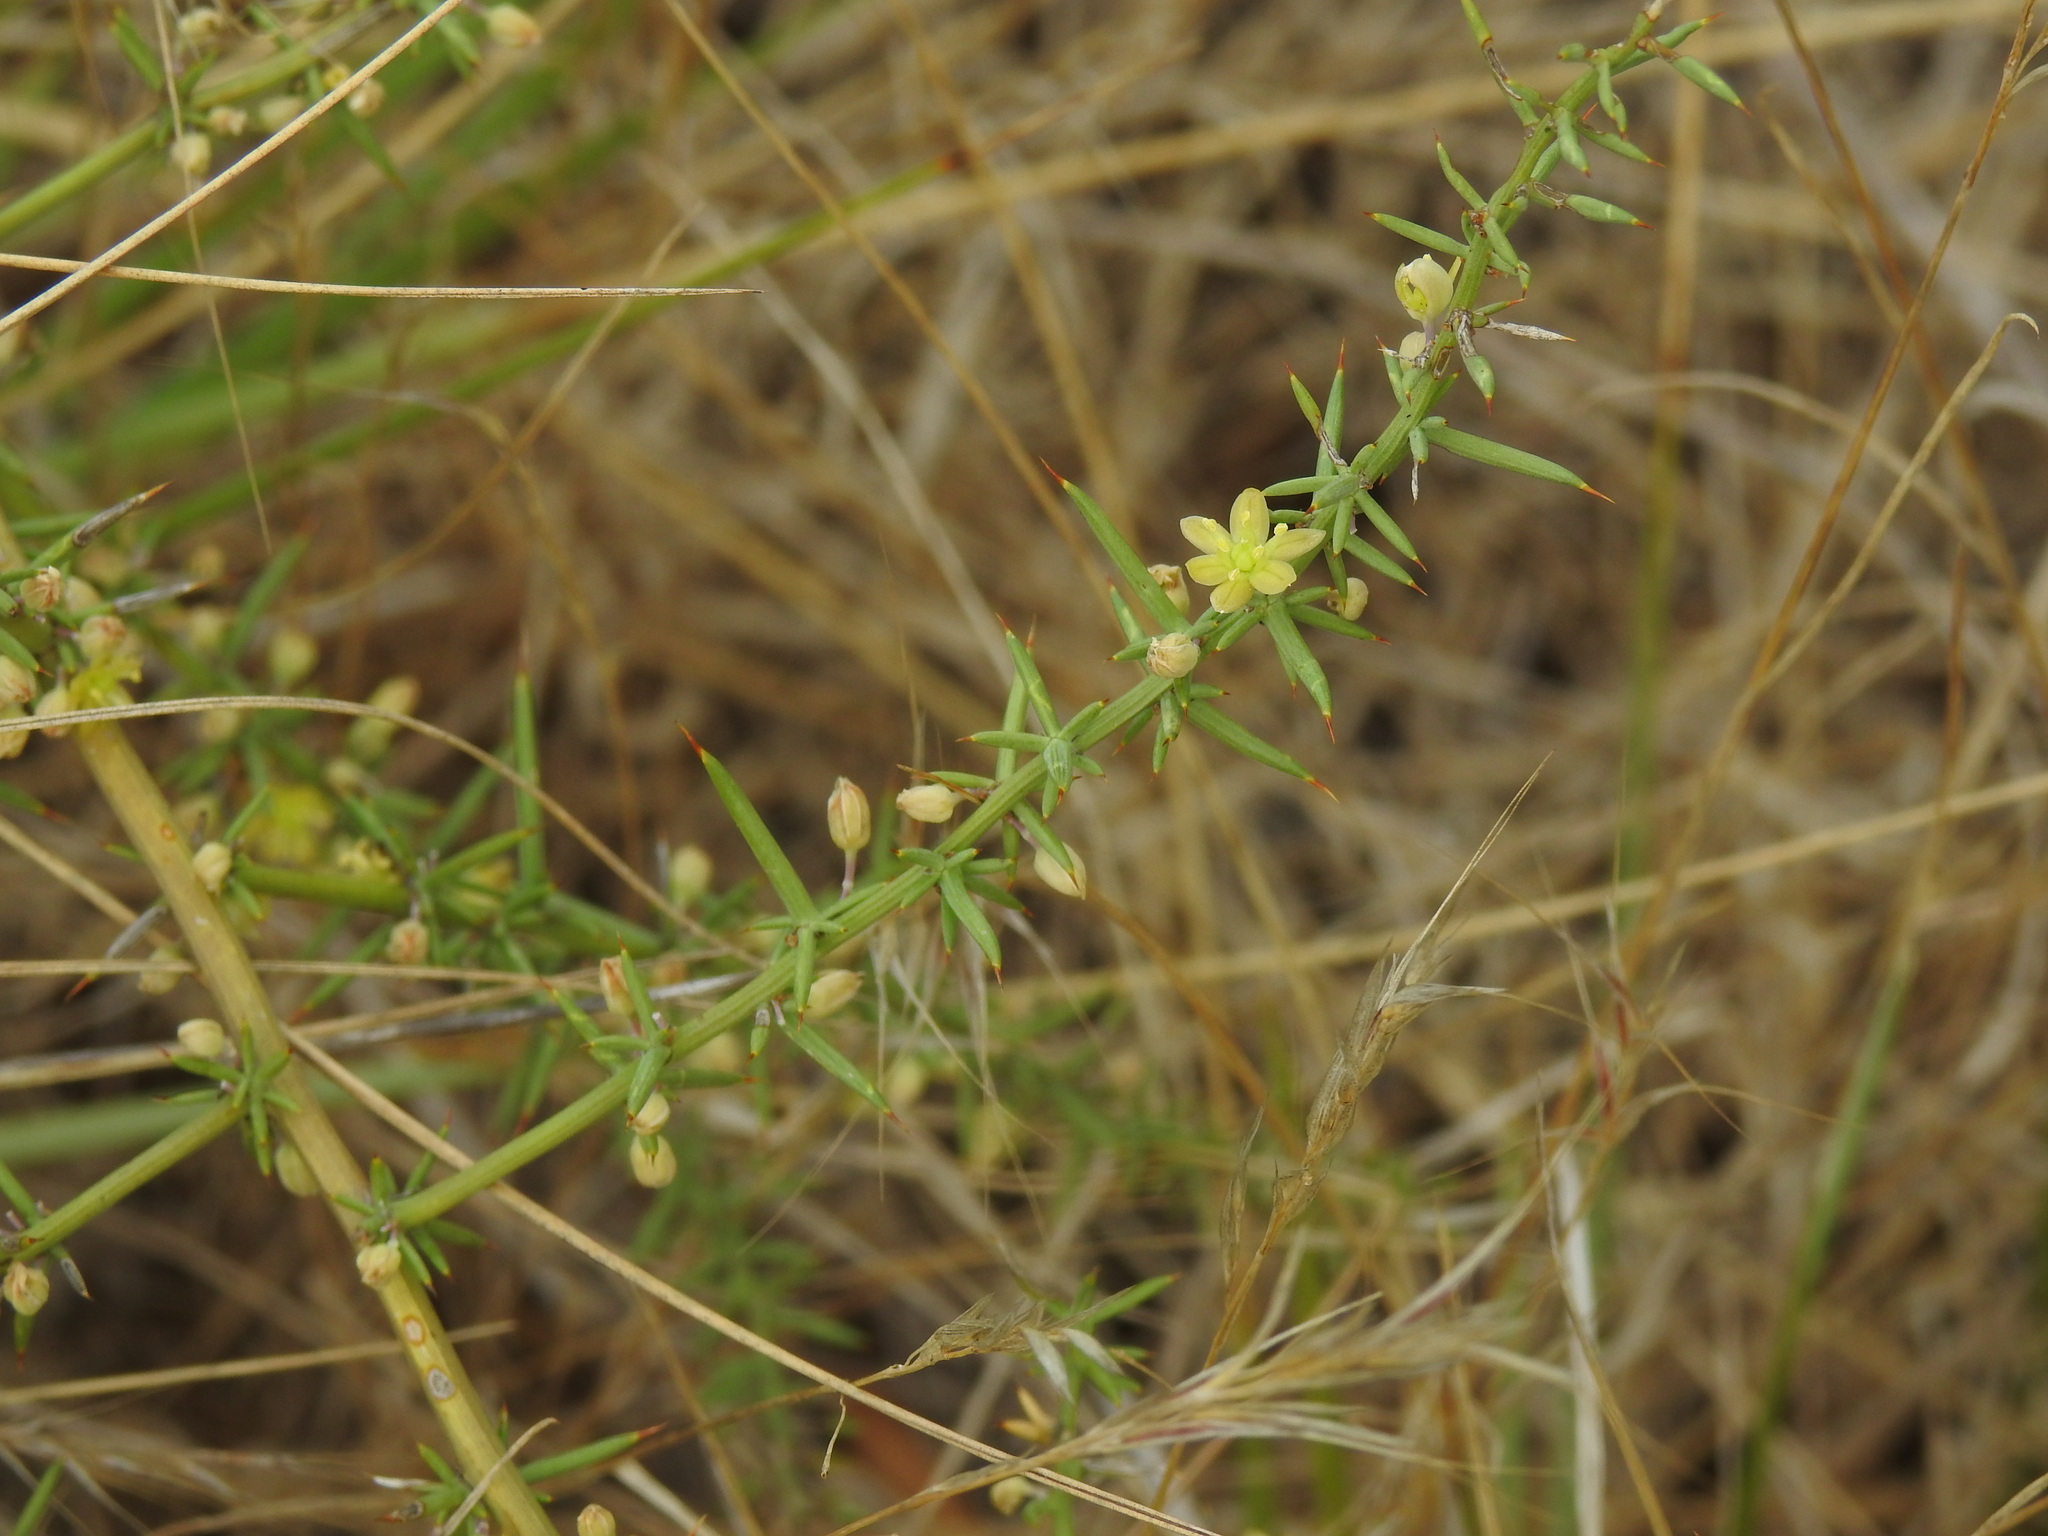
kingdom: Plantae
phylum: Tracheophyta
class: Liliopsida
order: Asparagales
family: Asparagaceae
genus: Asparagus
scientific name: Asparagus aphyllus
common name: Mediterranean asparagus
